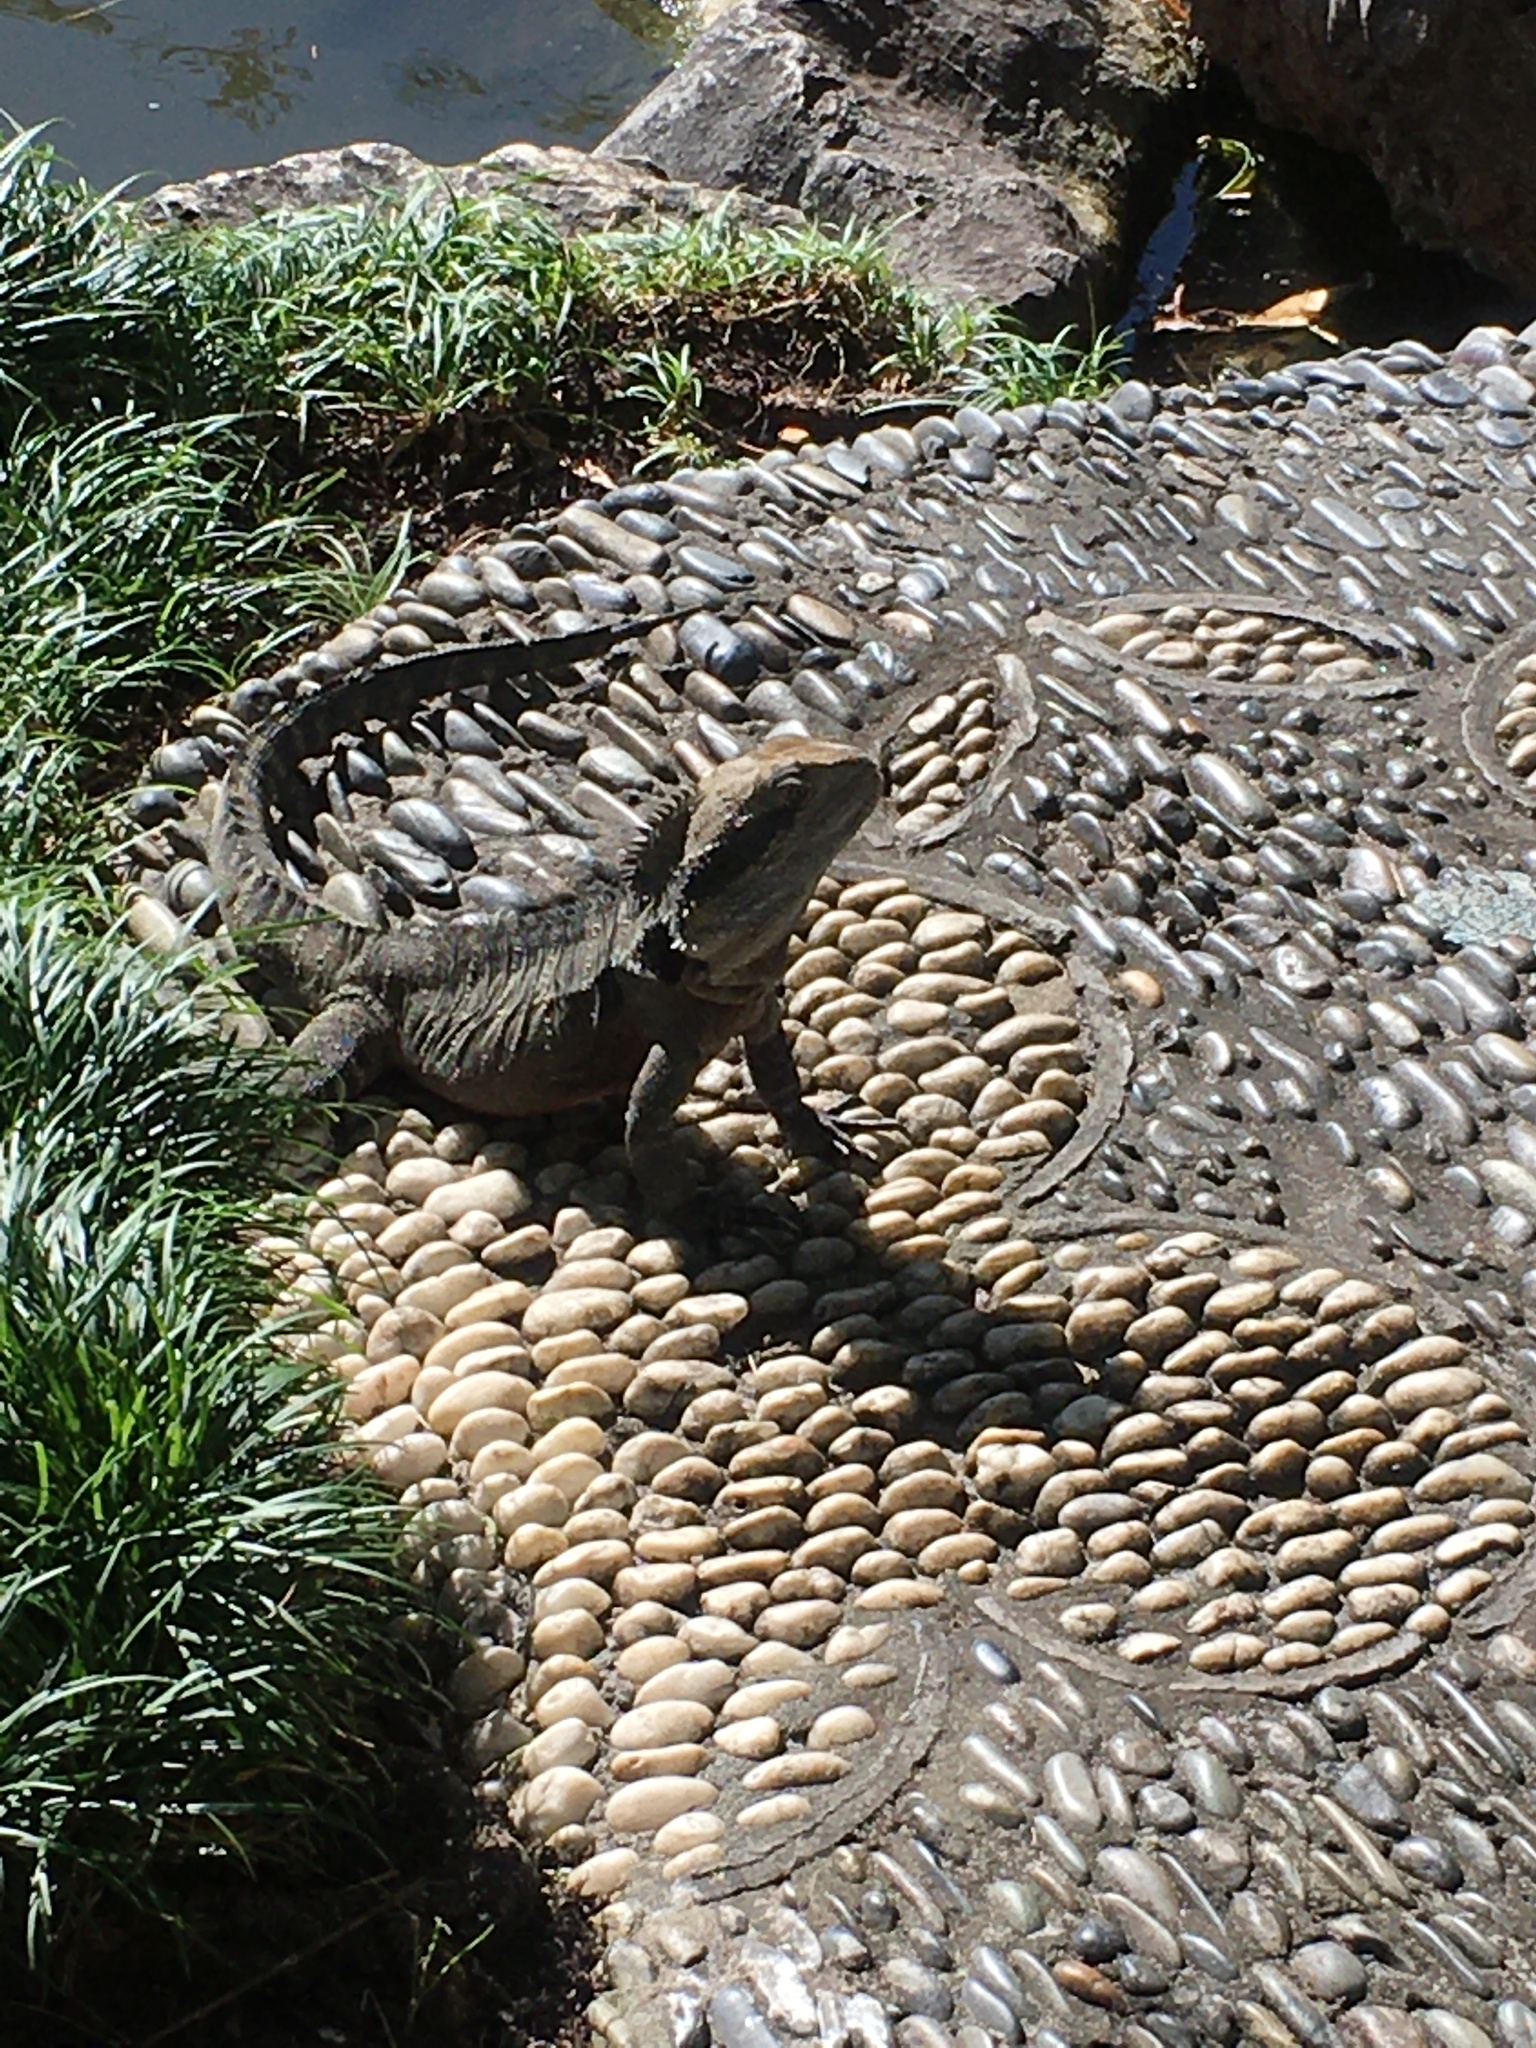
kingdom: Animalia
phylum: Chordata
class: Squamata
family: Agamidae
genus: Intellagama
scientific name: Intellagama lesueurii
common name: Eastern water dragon
